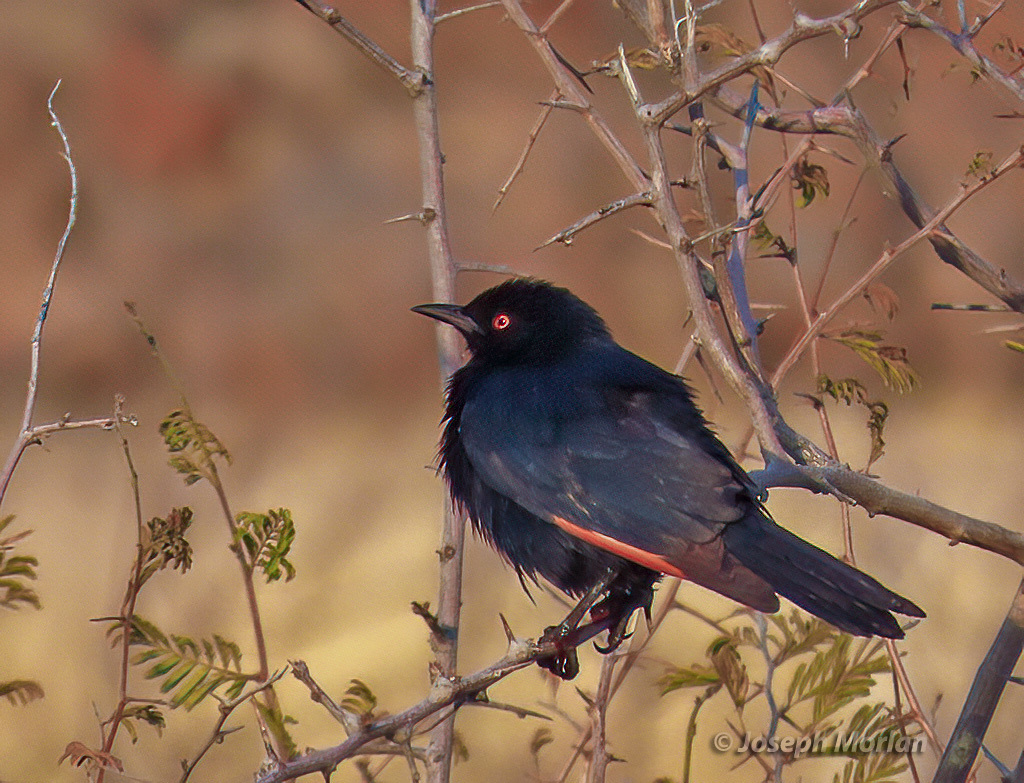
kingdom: Animalia
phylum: Chordata
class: Aves
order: Passeriformes
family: Sturnidae
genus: Onychognathus
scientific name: Onychognathus nabouroup
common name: Pale-winged starling
